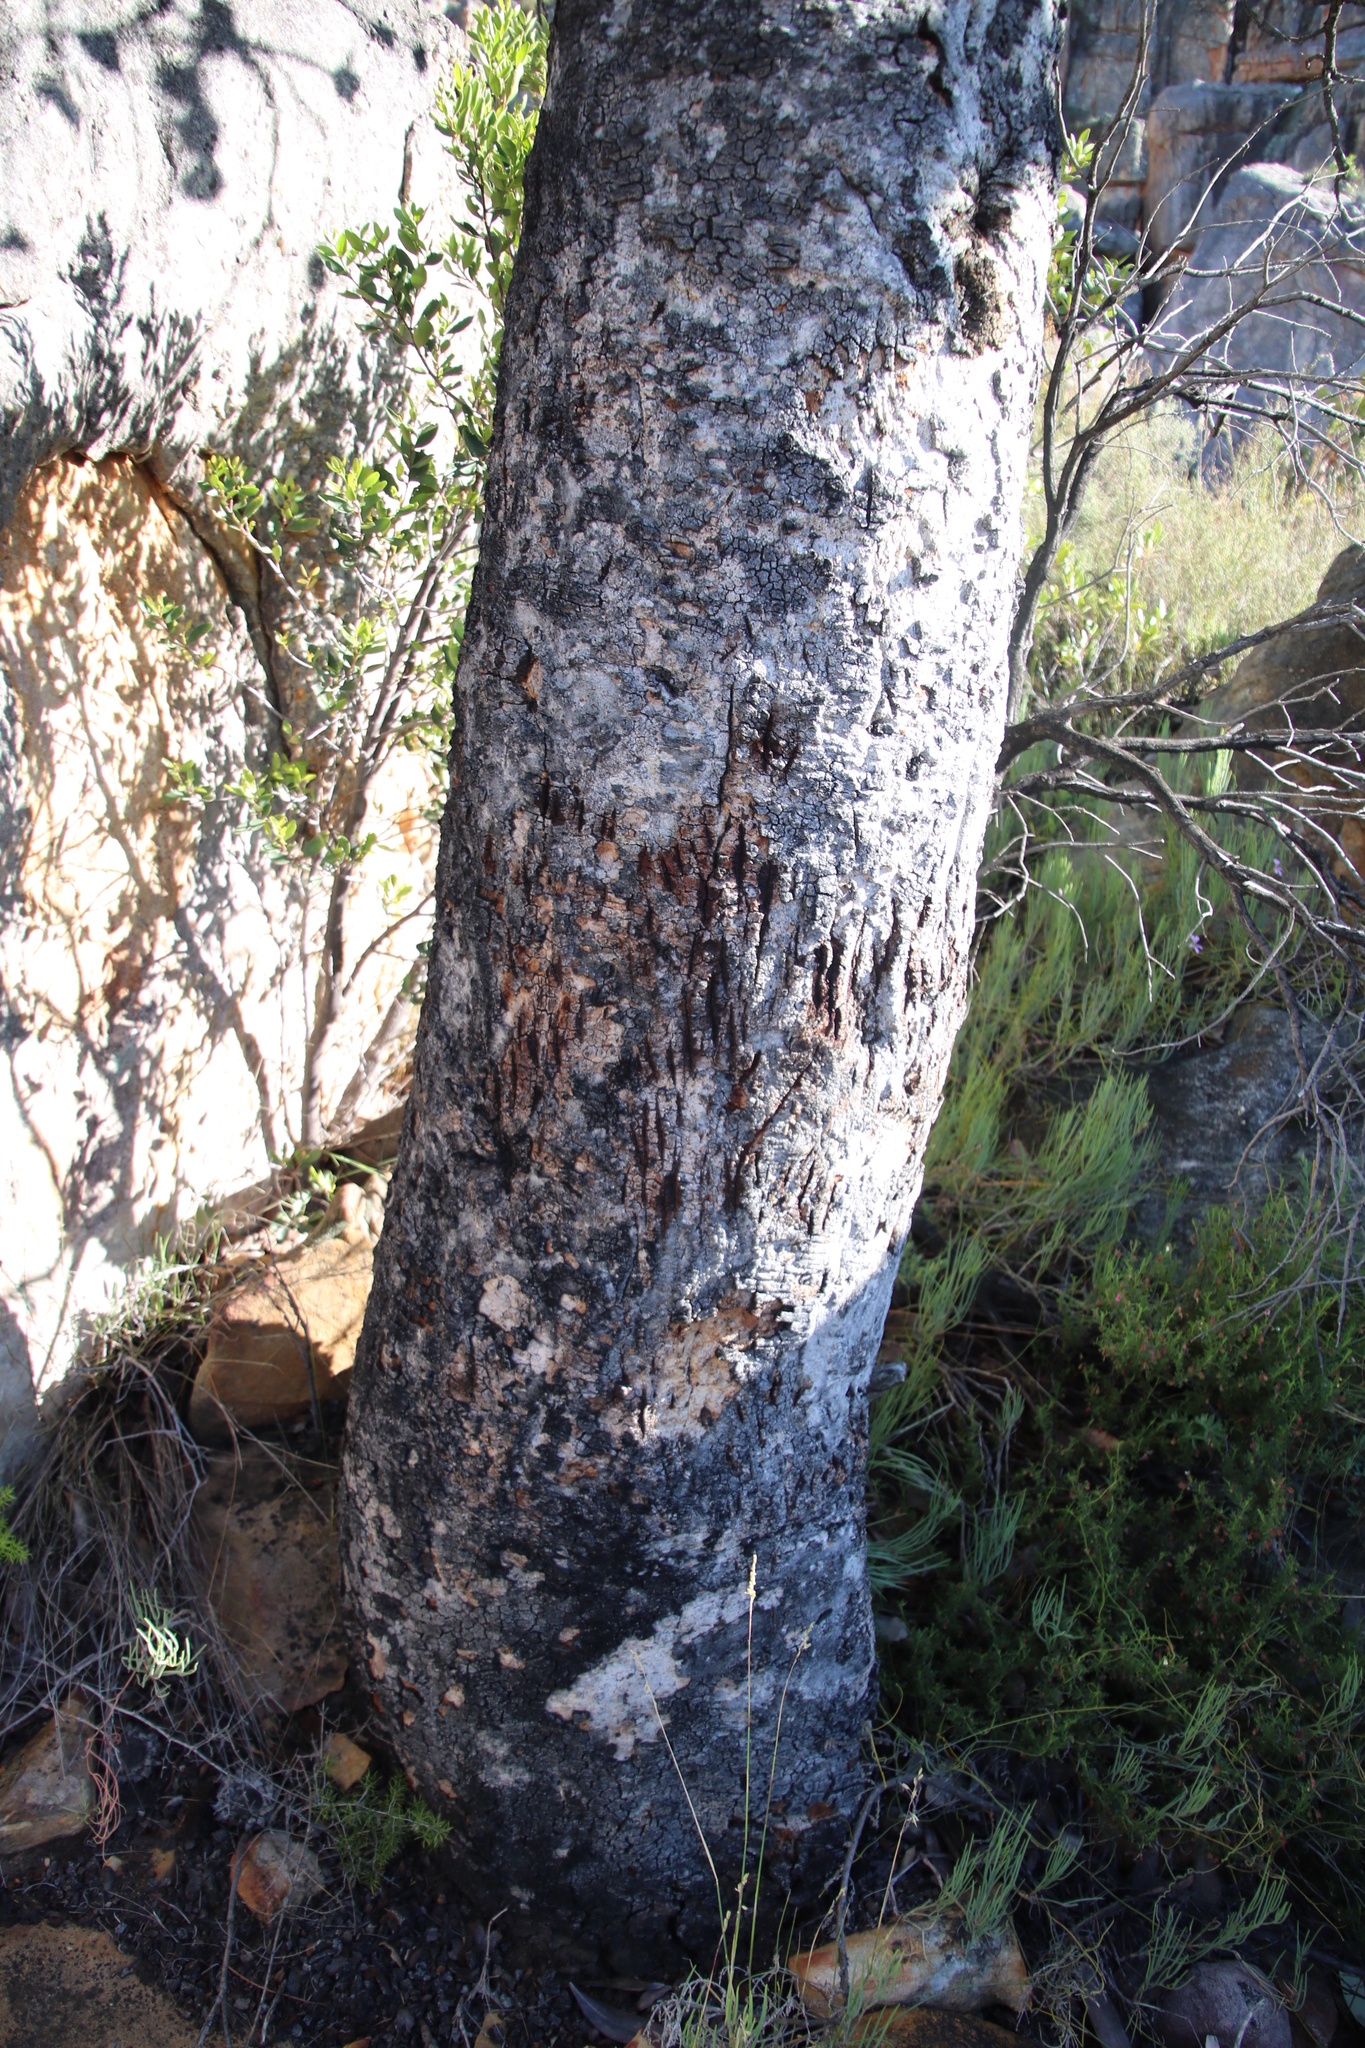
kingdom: Plantae
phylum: Tracheophyta
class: Magnoliopsida
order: Proteales
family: Proteaceae
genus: Protea
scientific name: Protea nitida
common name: Tree protea
